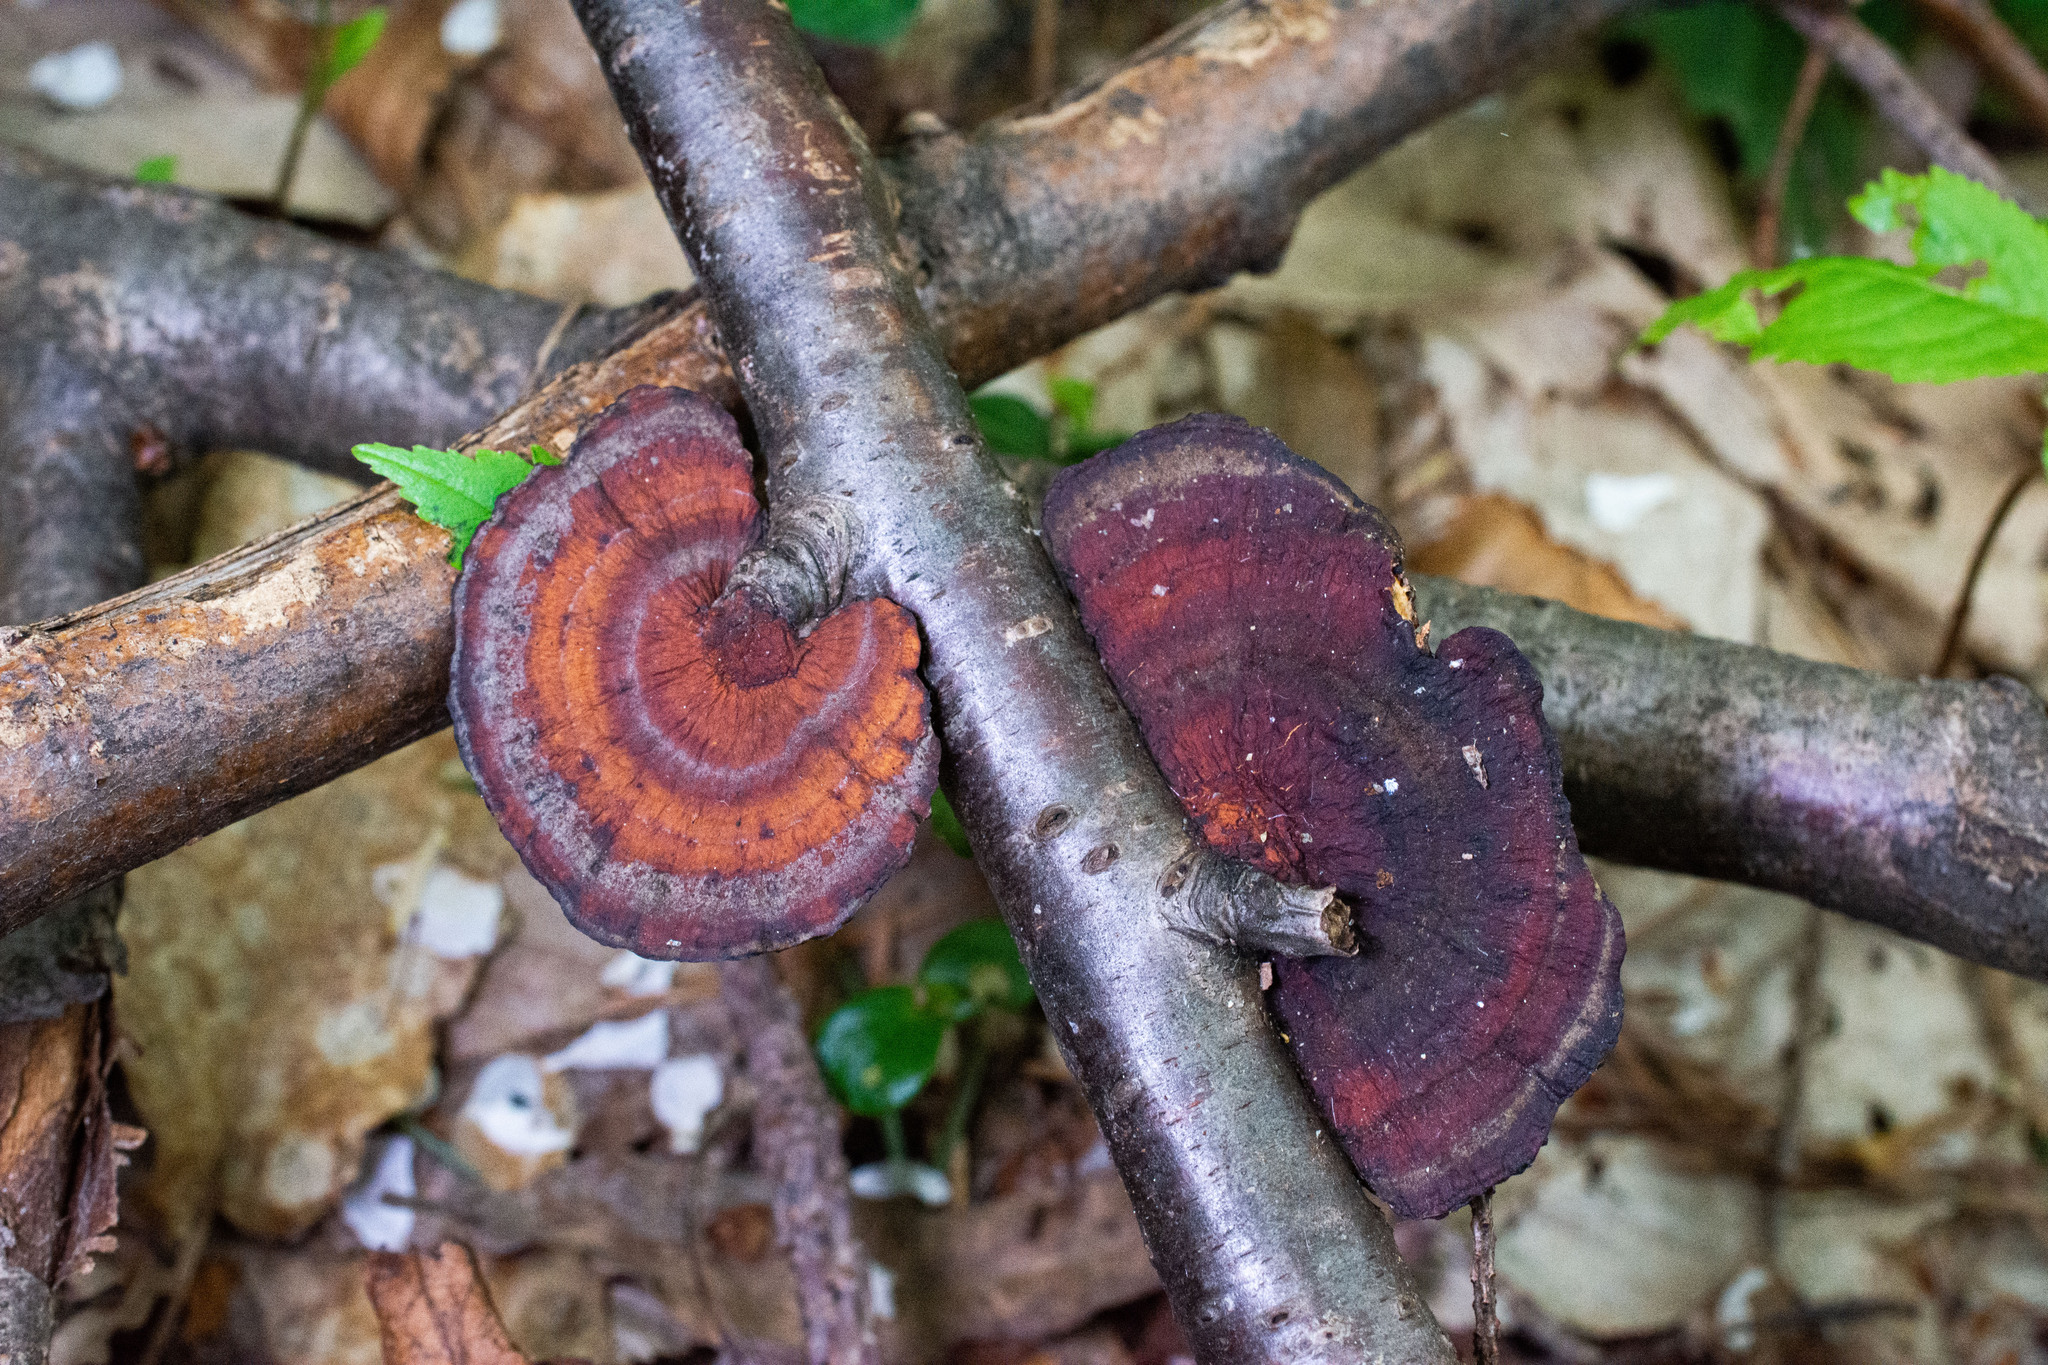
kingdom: Fungi
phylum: Basidiomycota
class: Agaricomycetes
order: Polyporales
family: Polyporaceae
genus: Daedaleopsis
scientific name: Daedaleopsis tricolor
